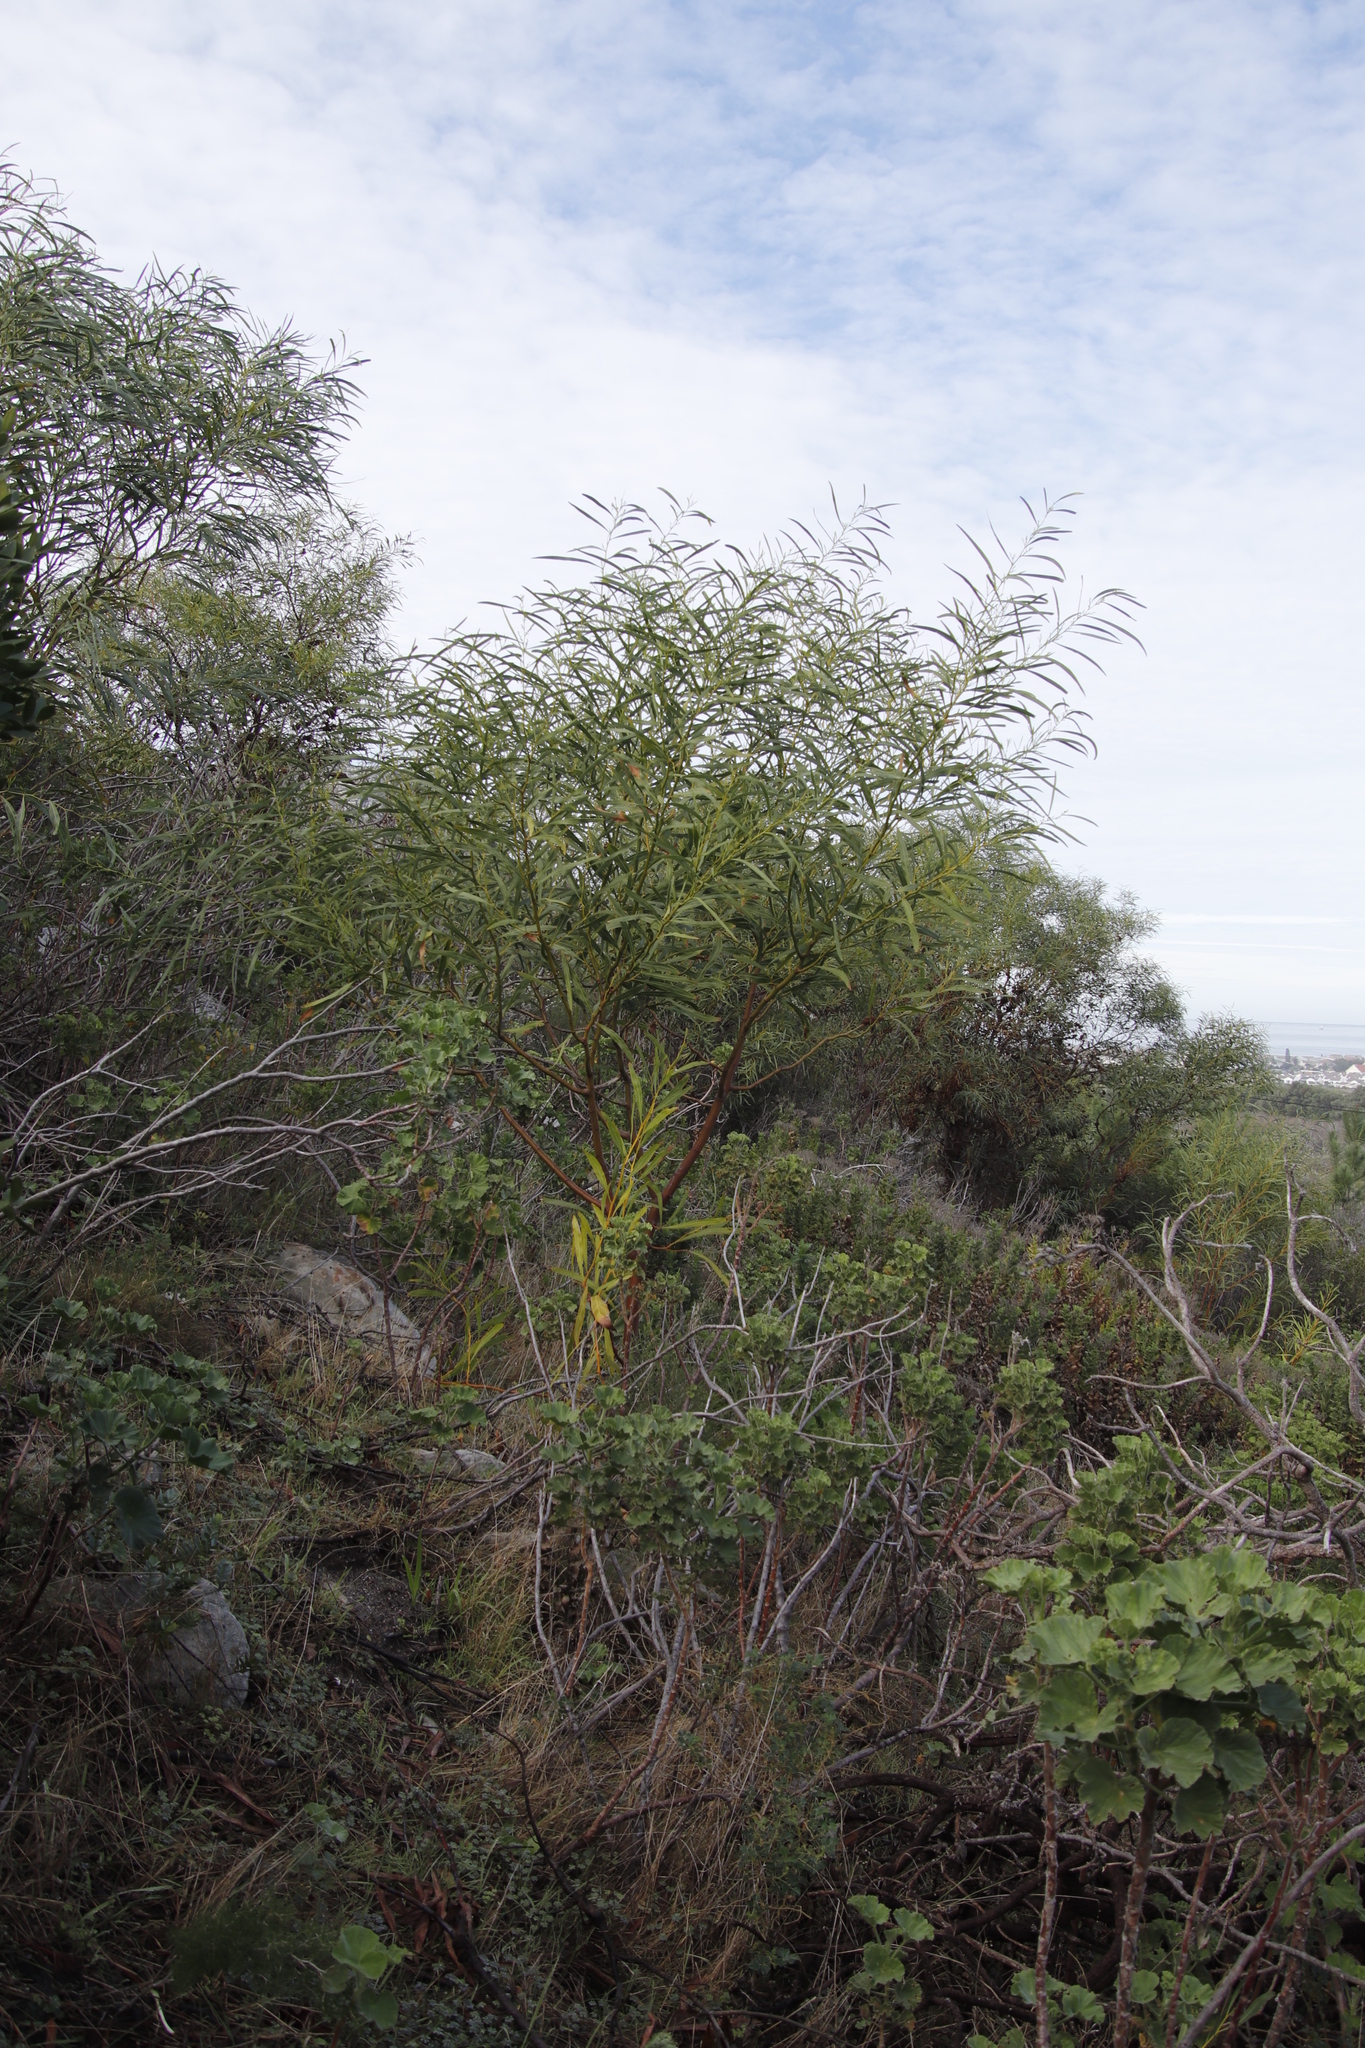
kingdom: Plantae
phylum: Tracheophyta
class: Magnoliopsida
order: Fabales
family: Fabaceae
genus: Acacia
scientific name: Acacia saligna
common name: Orange wattle
